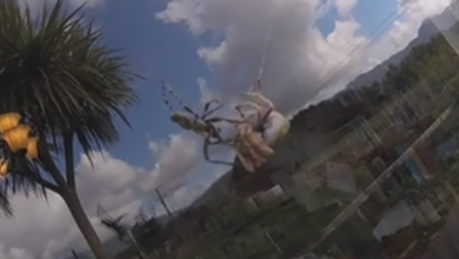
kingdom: Animalia
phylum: Arthropoda
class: Arachnida
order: Araneae
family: Araneidae
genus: Eriophora
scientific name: Eriophora pustulosa
